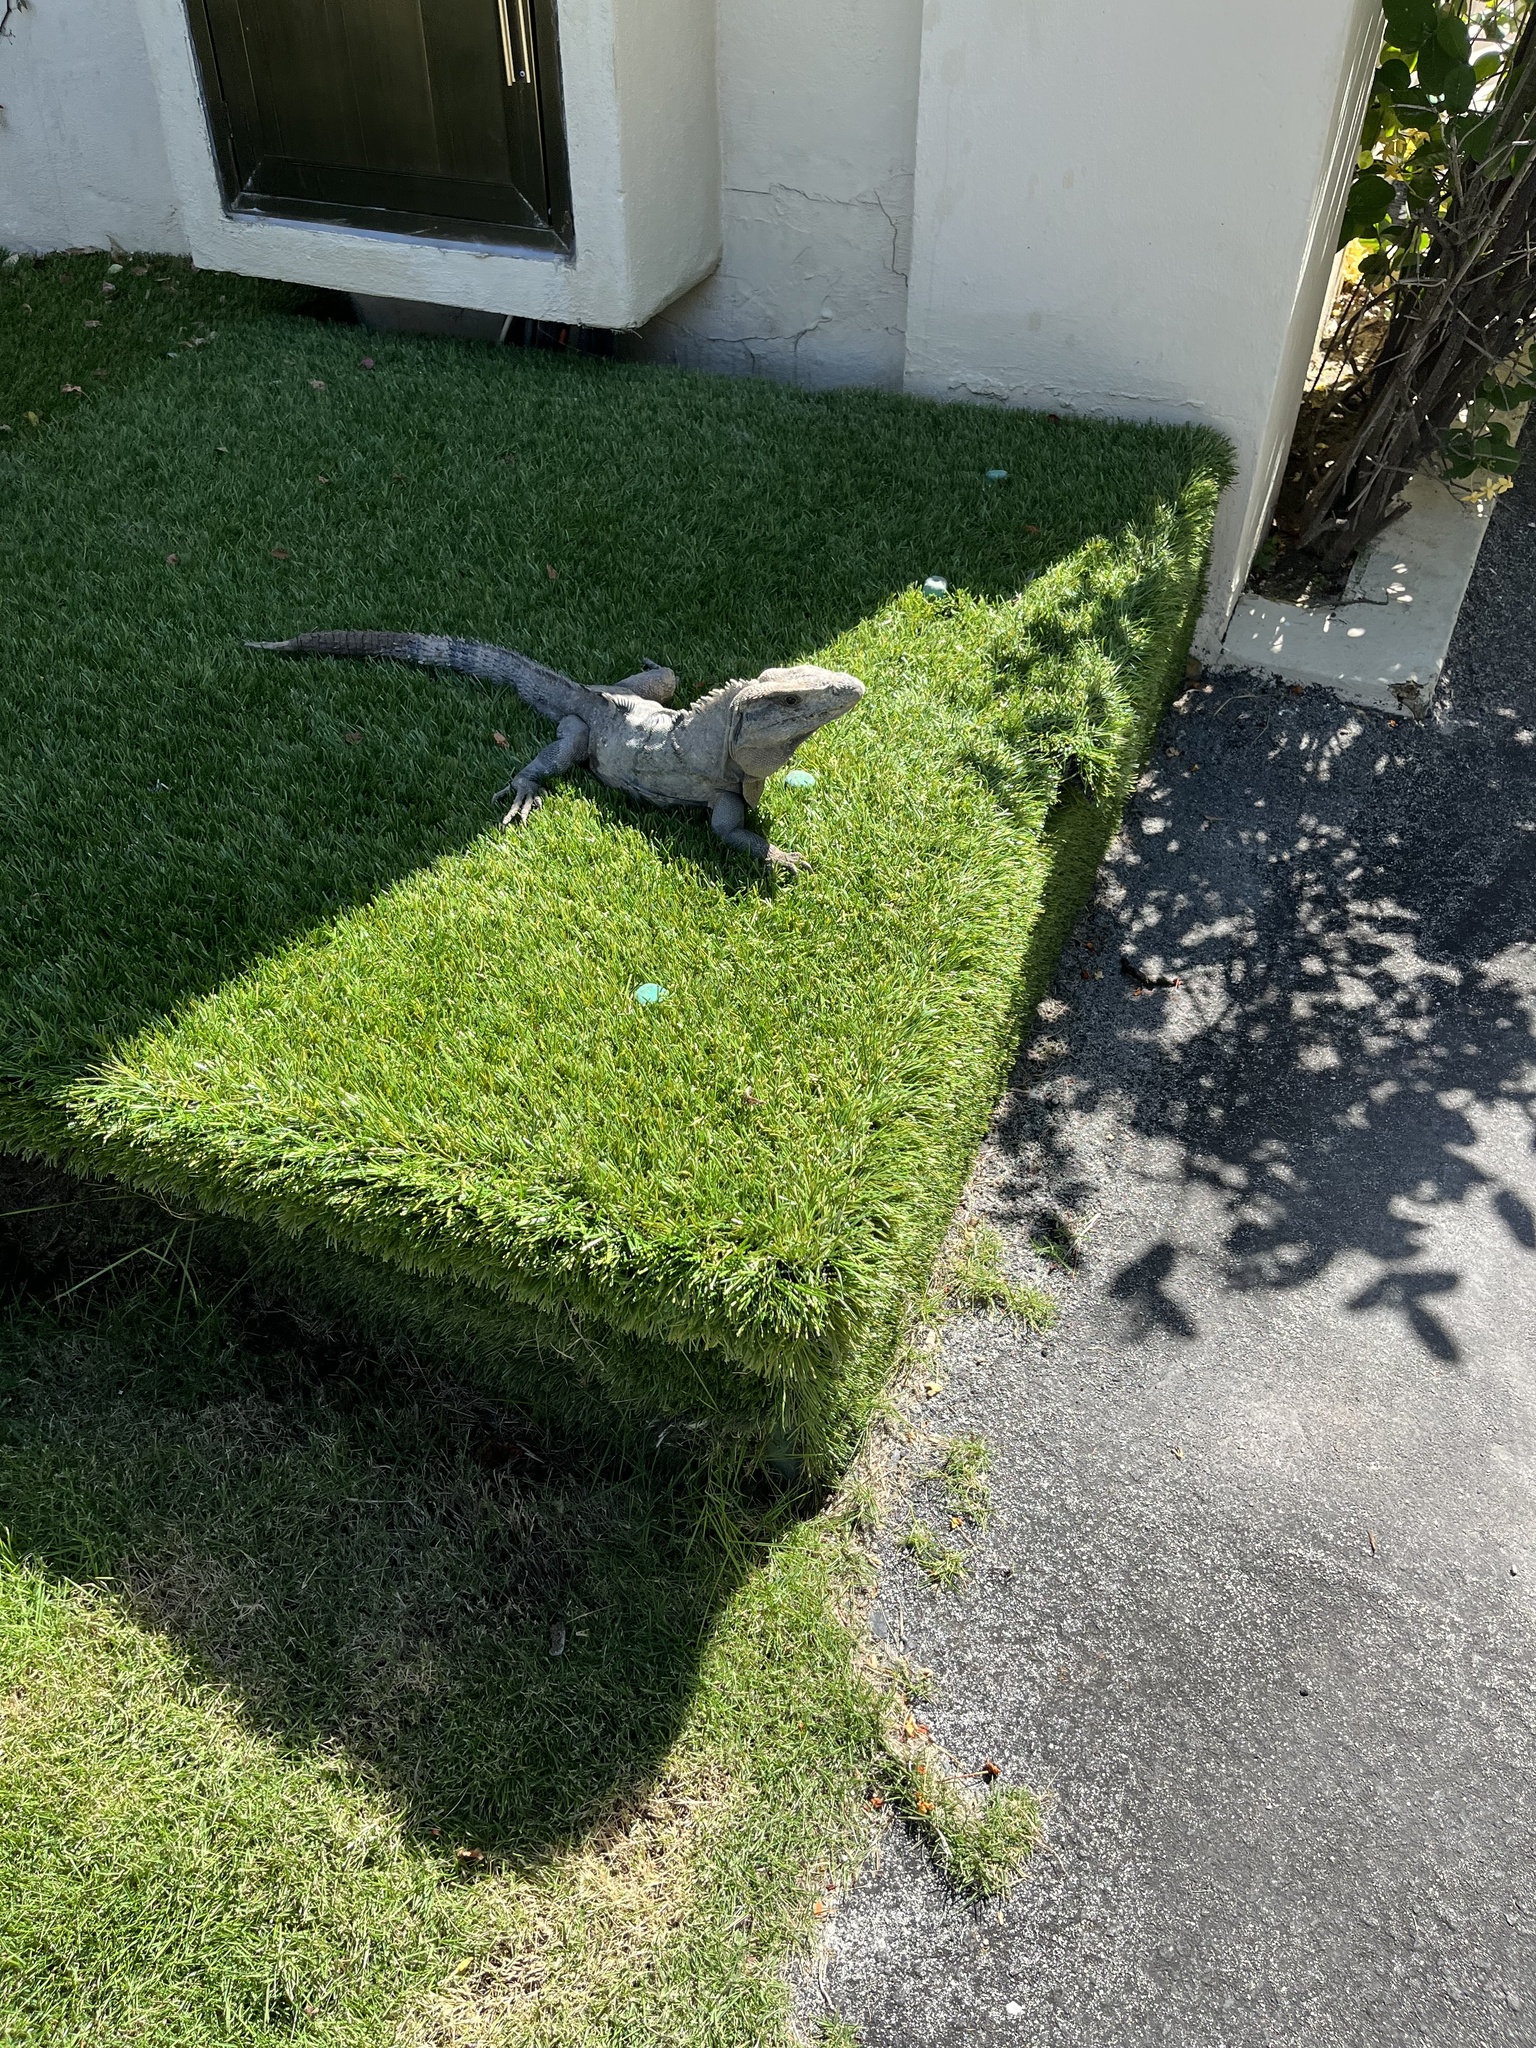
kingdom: Animalia
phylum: Chordata
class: Squamata
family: Iguanidae
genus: Ctenosaura
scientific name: Ctenosaura similis
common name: Black spiny-tailed iguana
